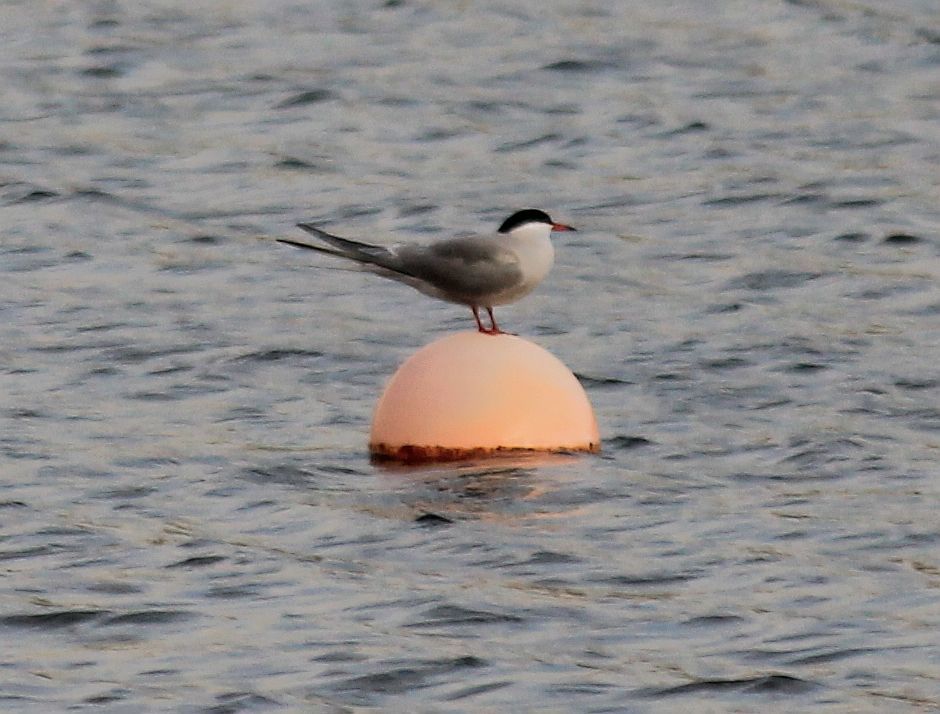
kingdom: Animalia
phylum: Chordata
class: Aves
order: Charadriiformes
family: Laridae
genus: Sterna
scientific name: Sterna hirundo
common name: Common tern
